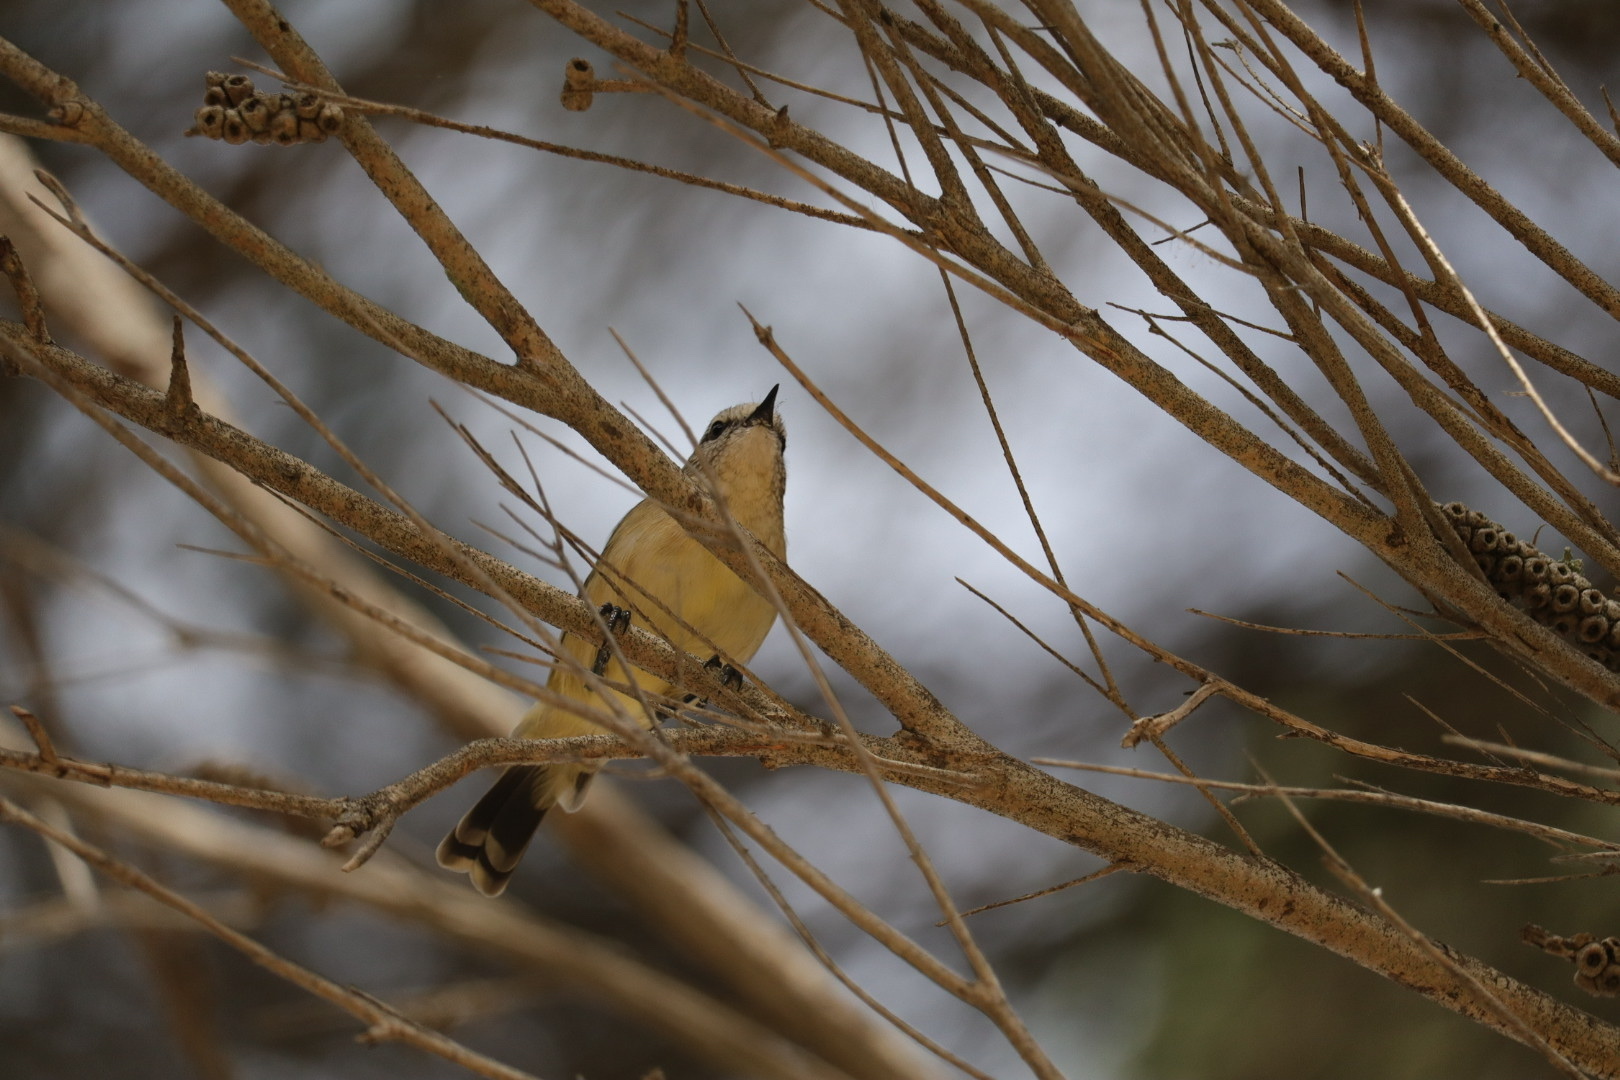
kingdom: Animalia
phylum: Chordata
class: Aves
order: Passeriformes
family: Acanthizidae
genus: Acanthiza
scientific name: Acanthiza chrysorrhoa
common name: Yellow-rumped thornbill
